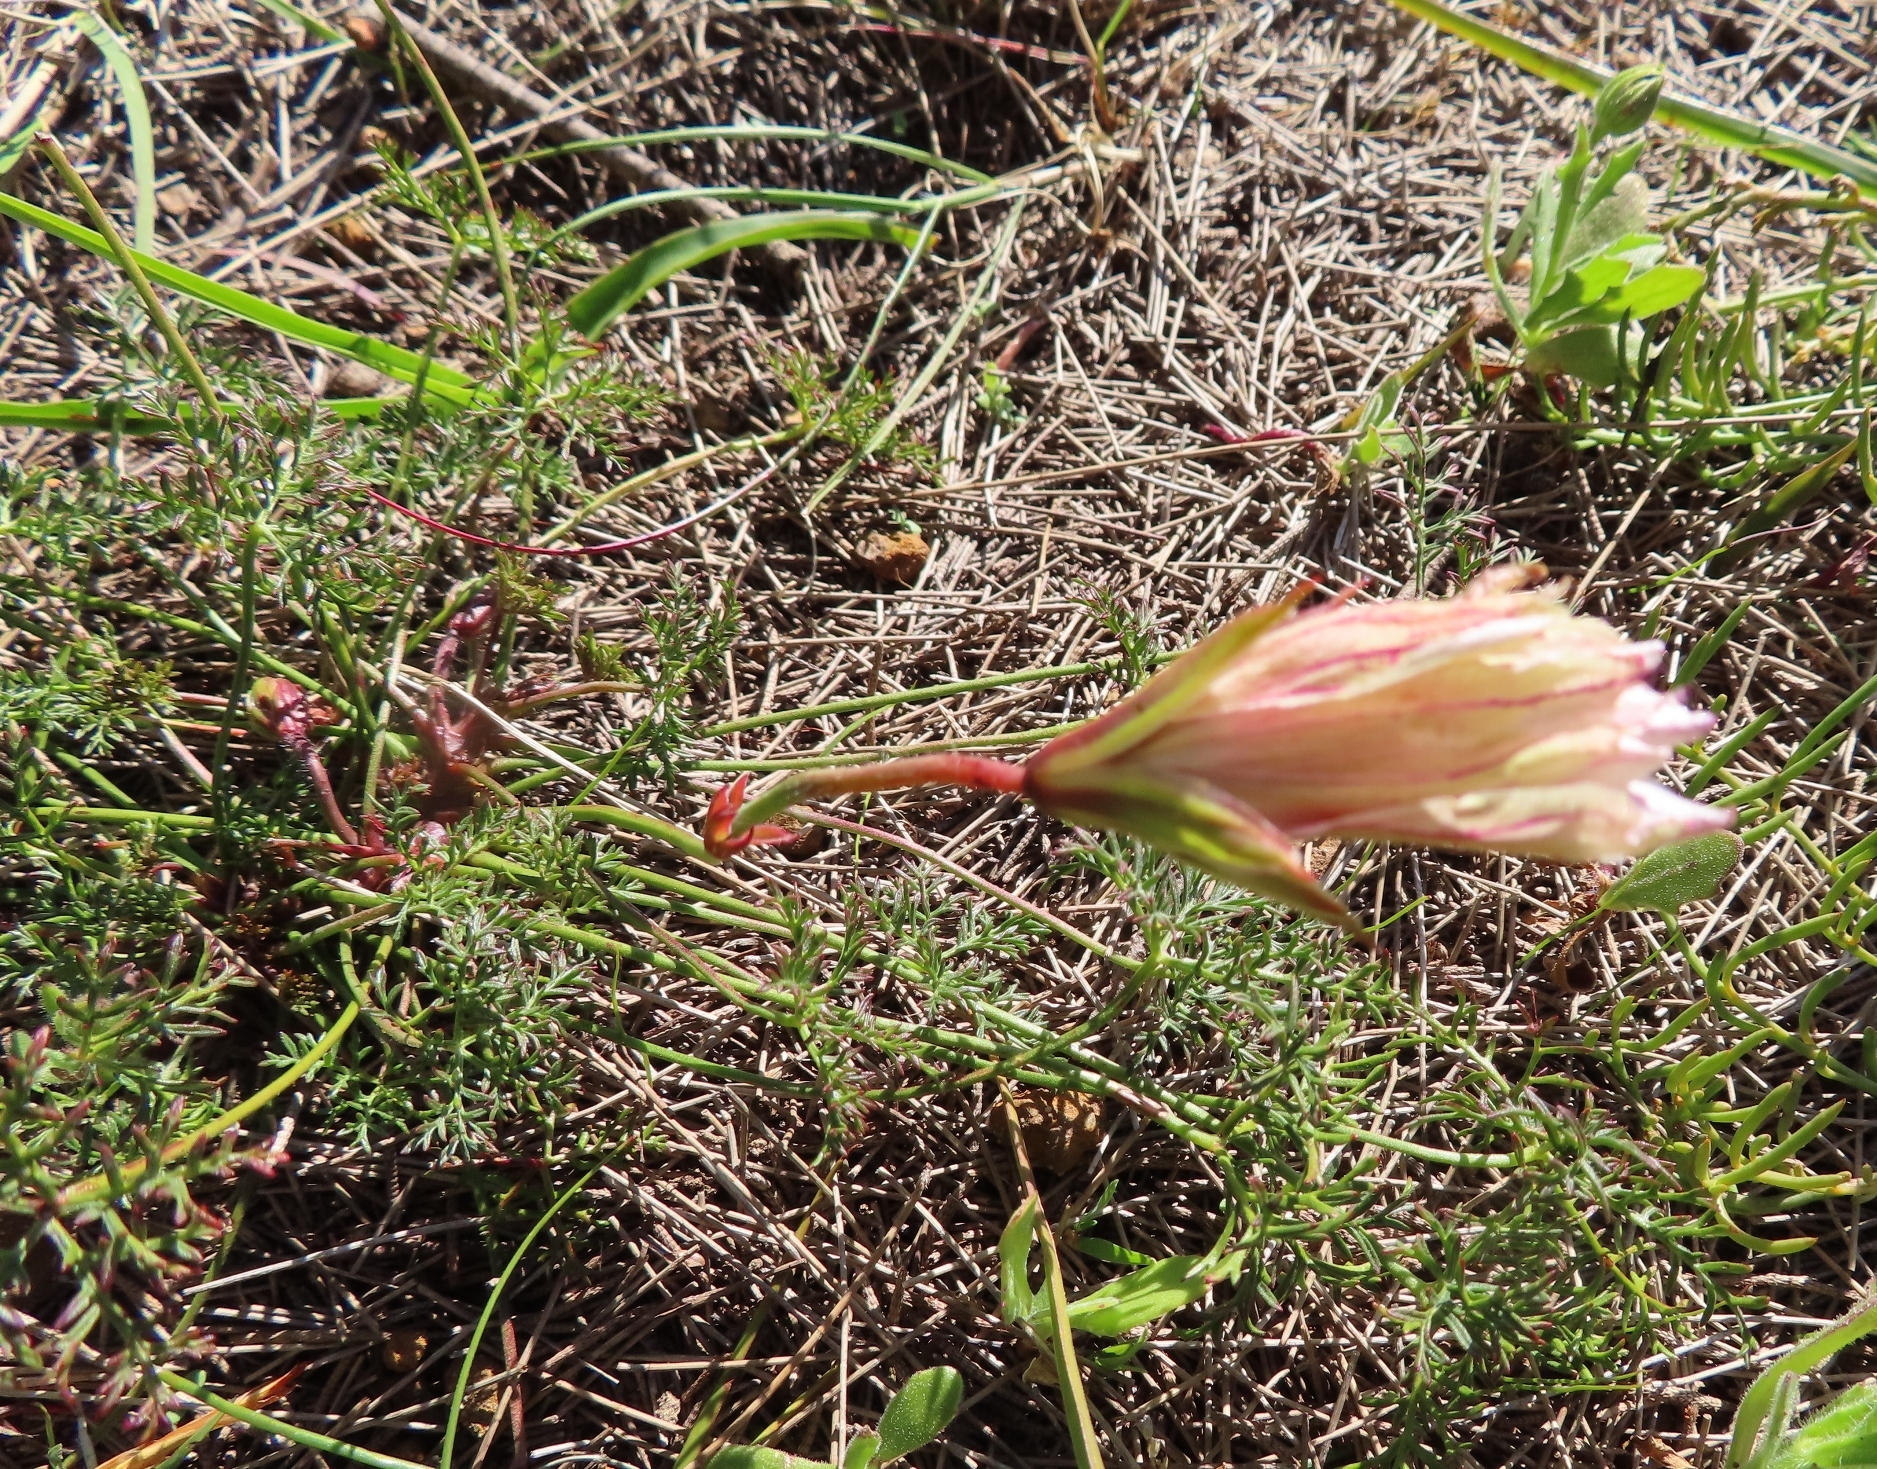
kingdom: Plantae
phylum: Tracheophyta
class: Magnoliopsida
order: Geraniales
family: Geraniaceae
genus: Monsonia
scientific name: Monsonia speciosa
